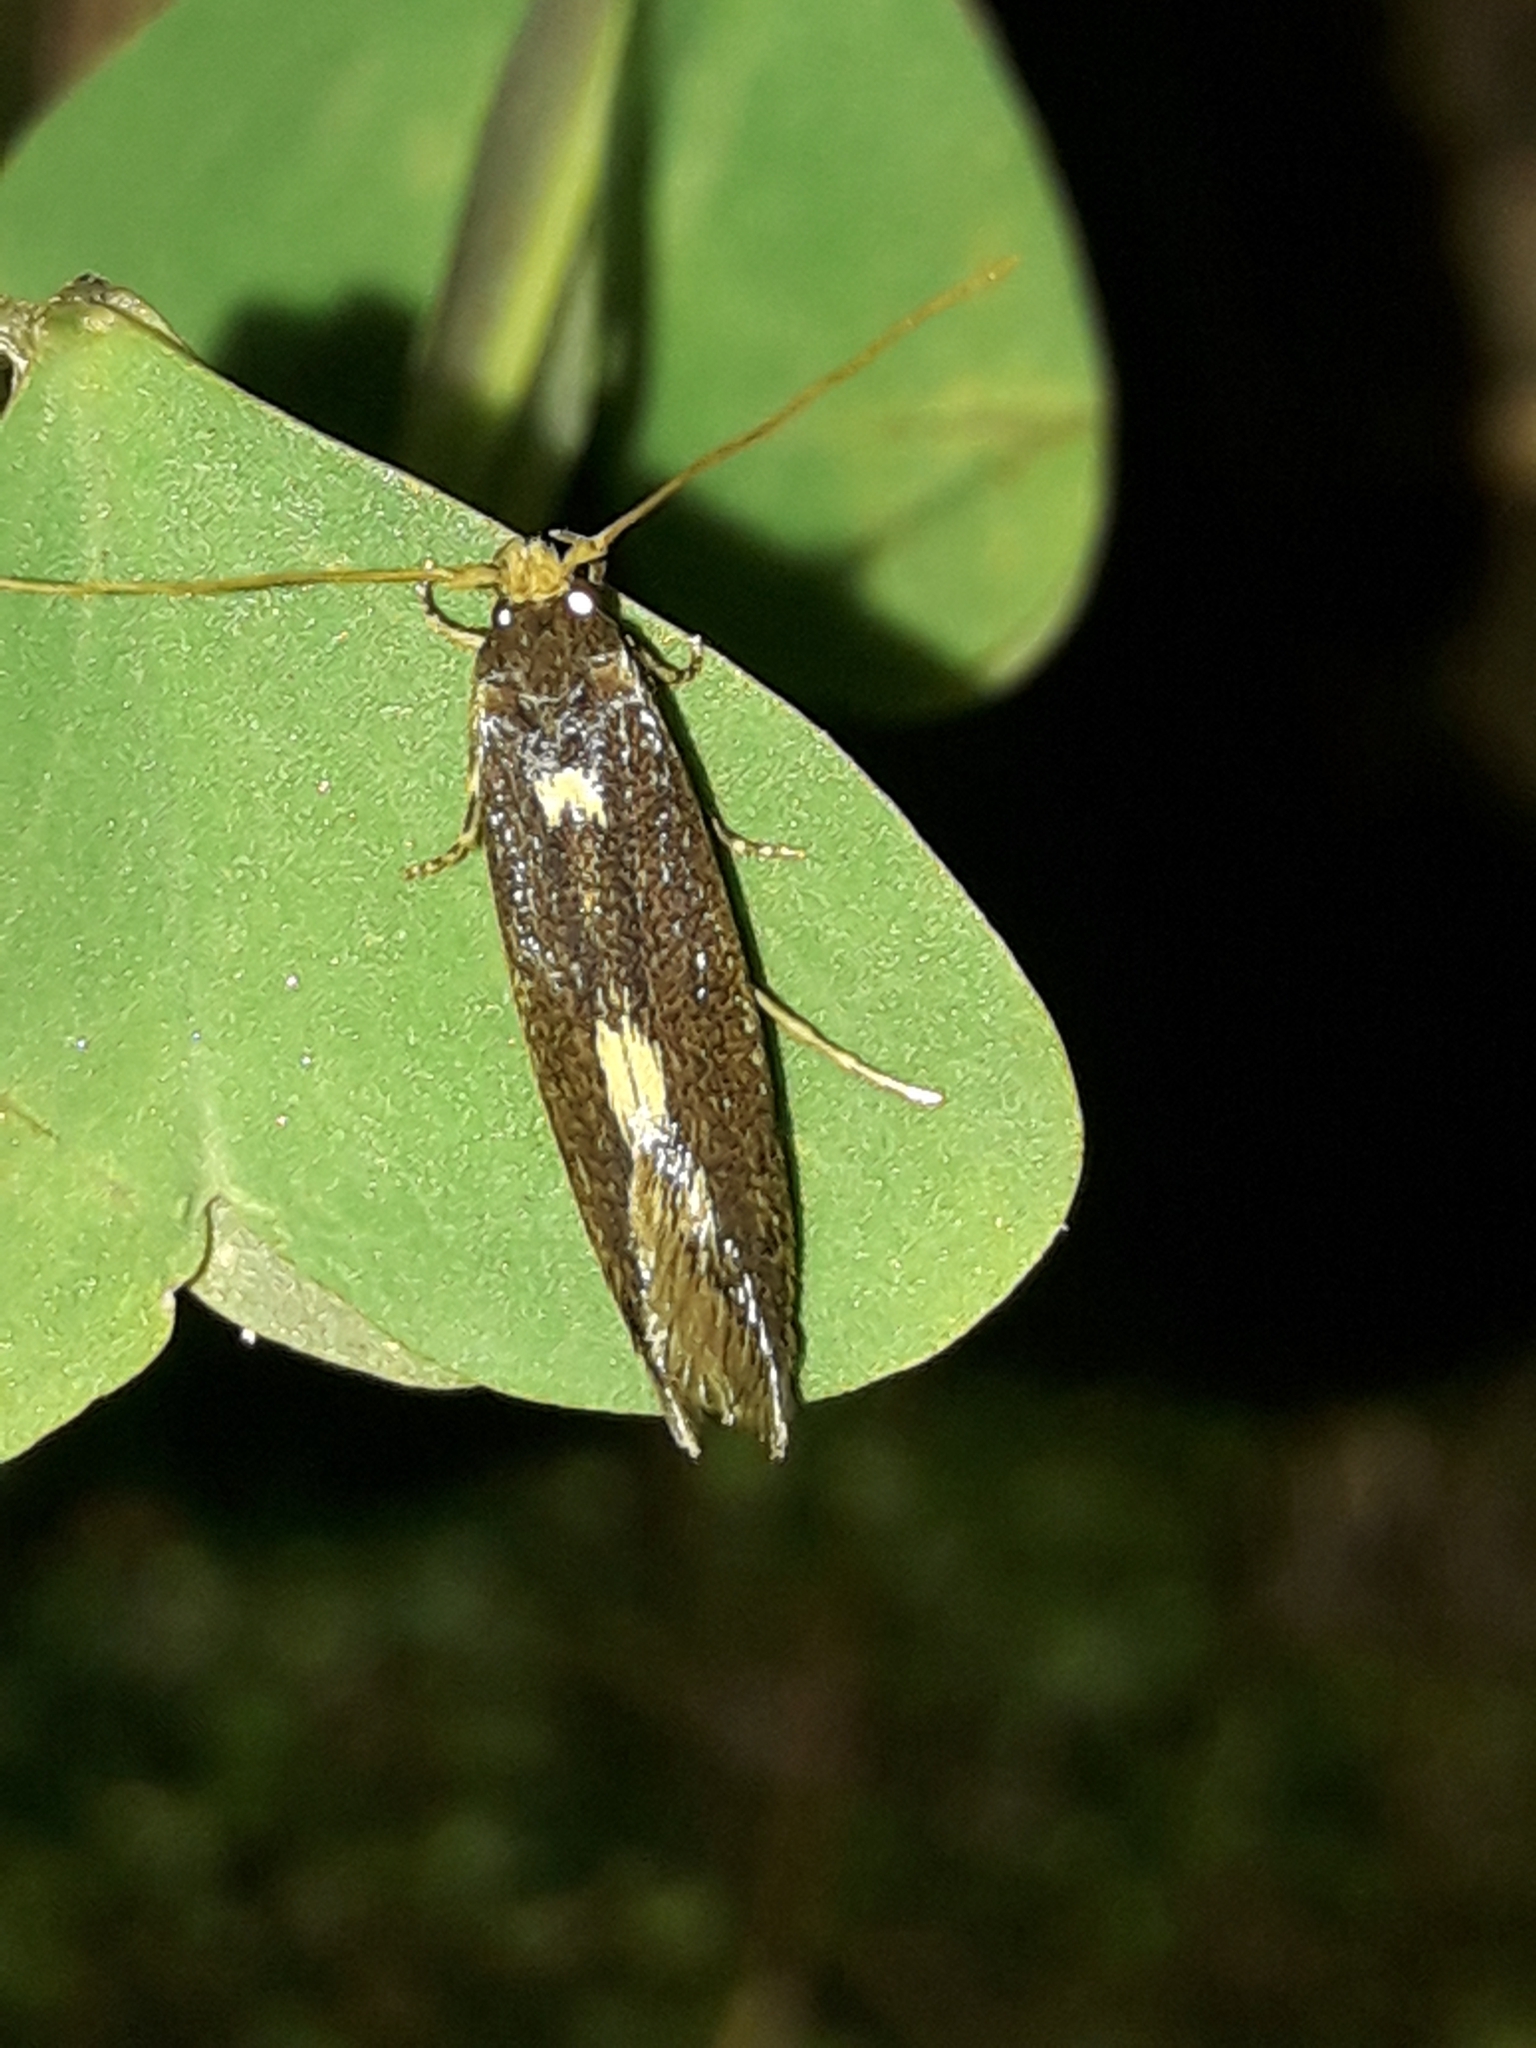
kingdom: Animalia
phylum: Arthropoda
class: Insecta
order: Lepidoptera
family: Tineidae
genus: Opogona
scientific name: Opogona omoscopa
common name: Moth
